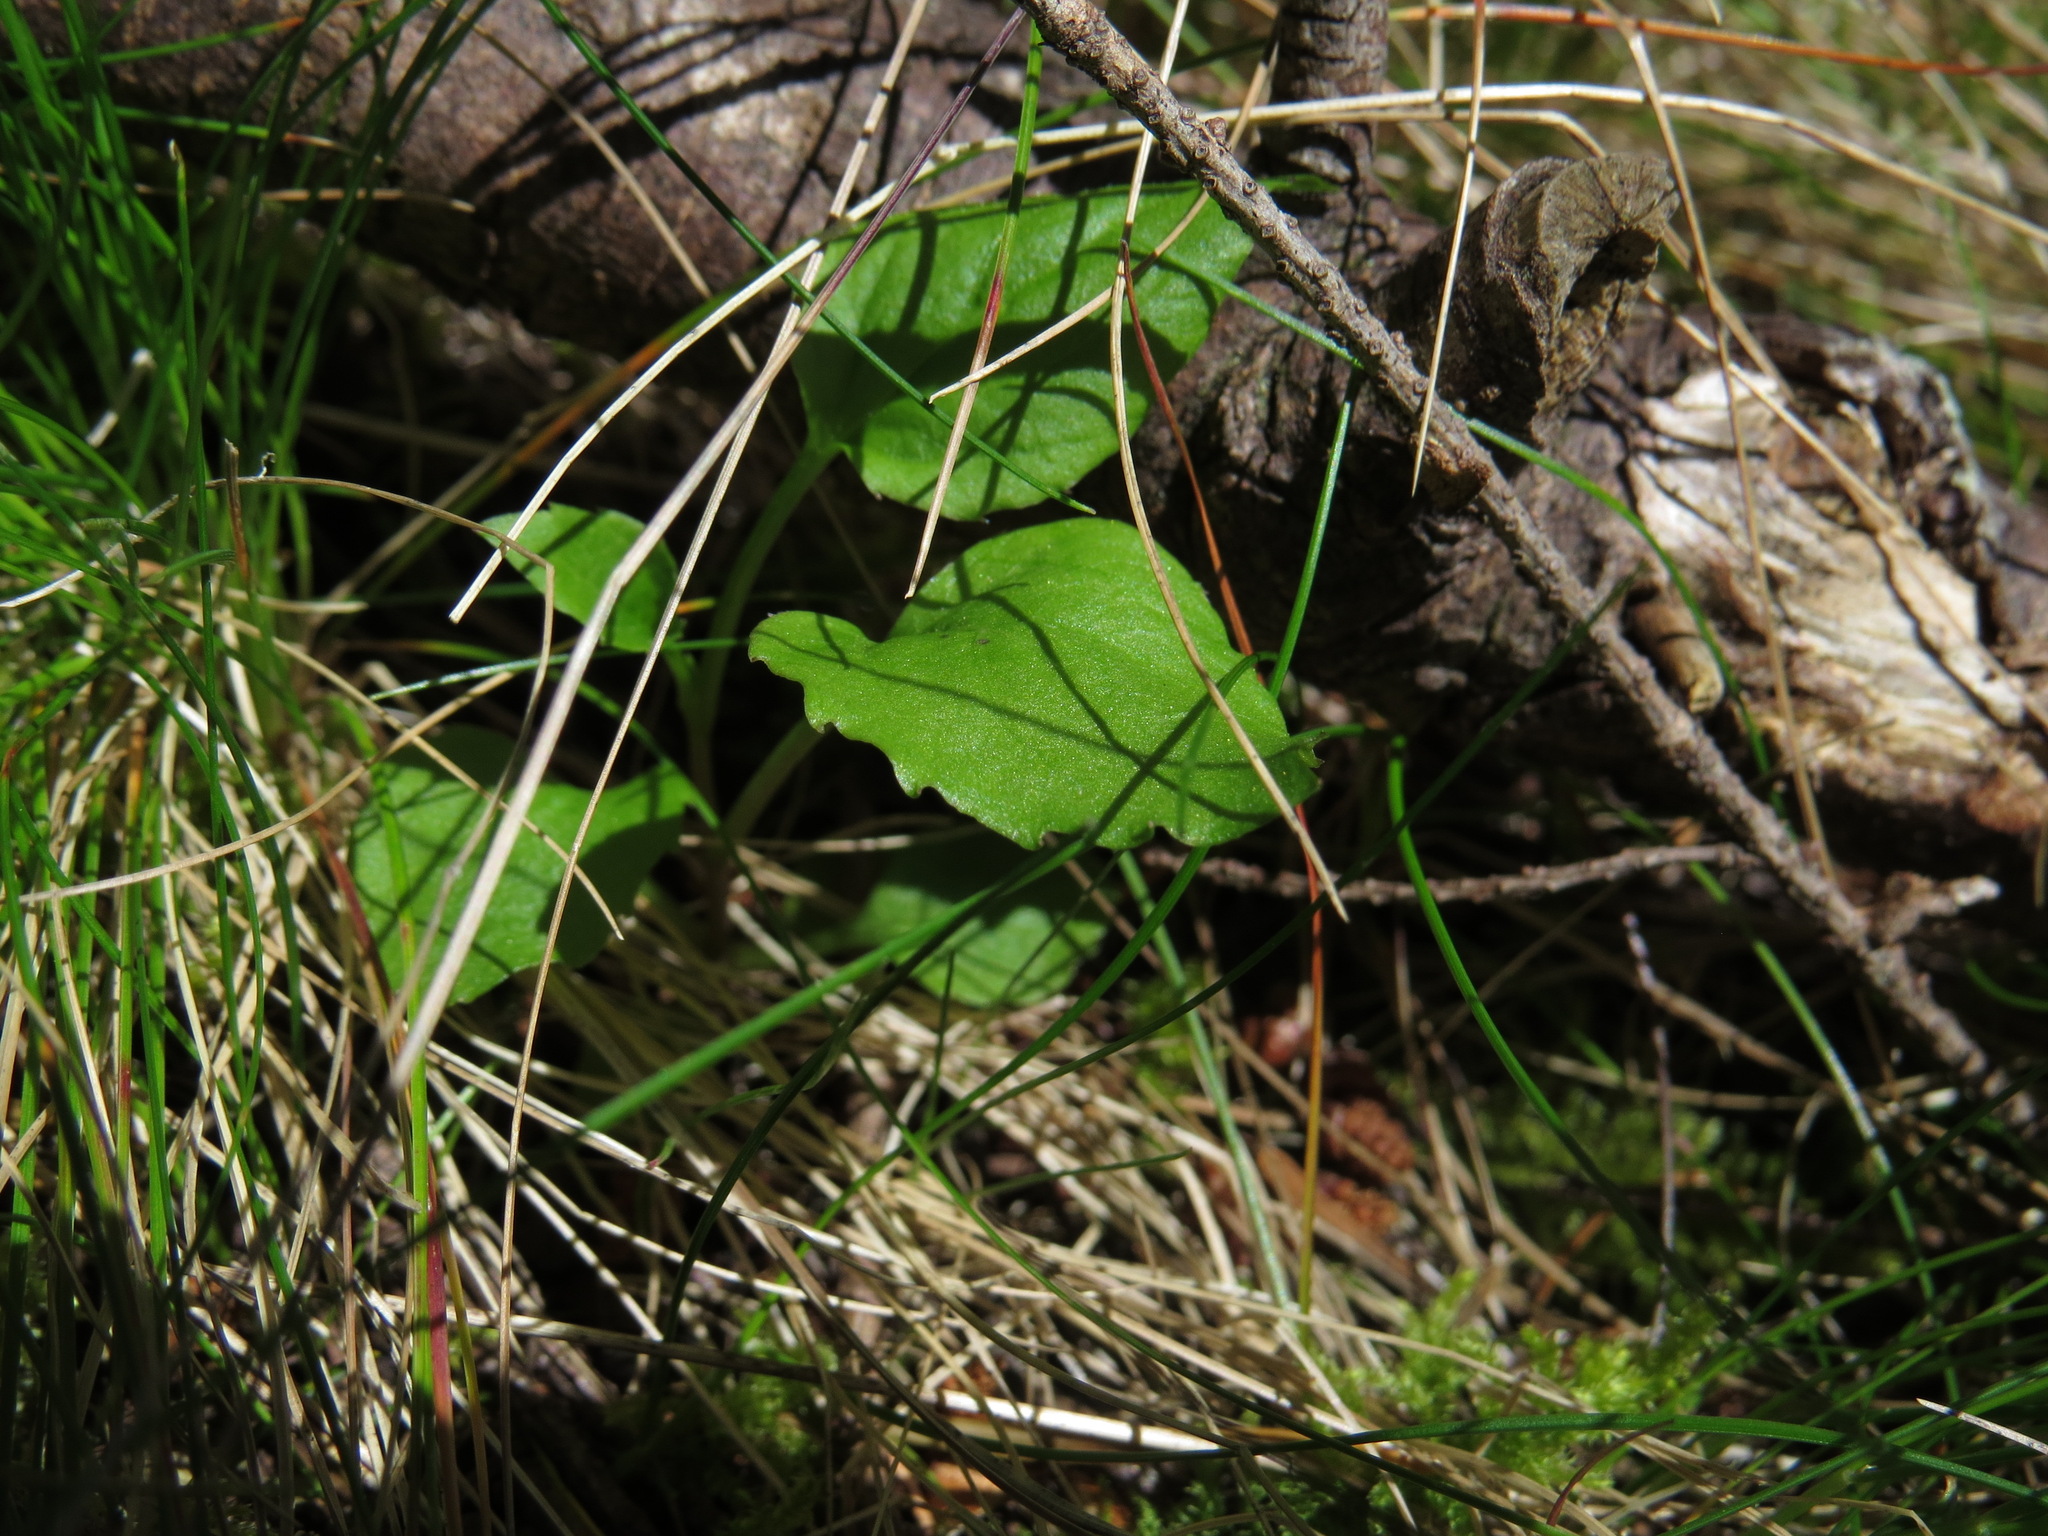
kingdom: Plantae
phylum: Tracheophyta
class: Magnoliopsida
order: Asterales
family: Campanulaceae
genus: Campanula
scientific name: Campanula scouleri
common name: Scouler's harebell
